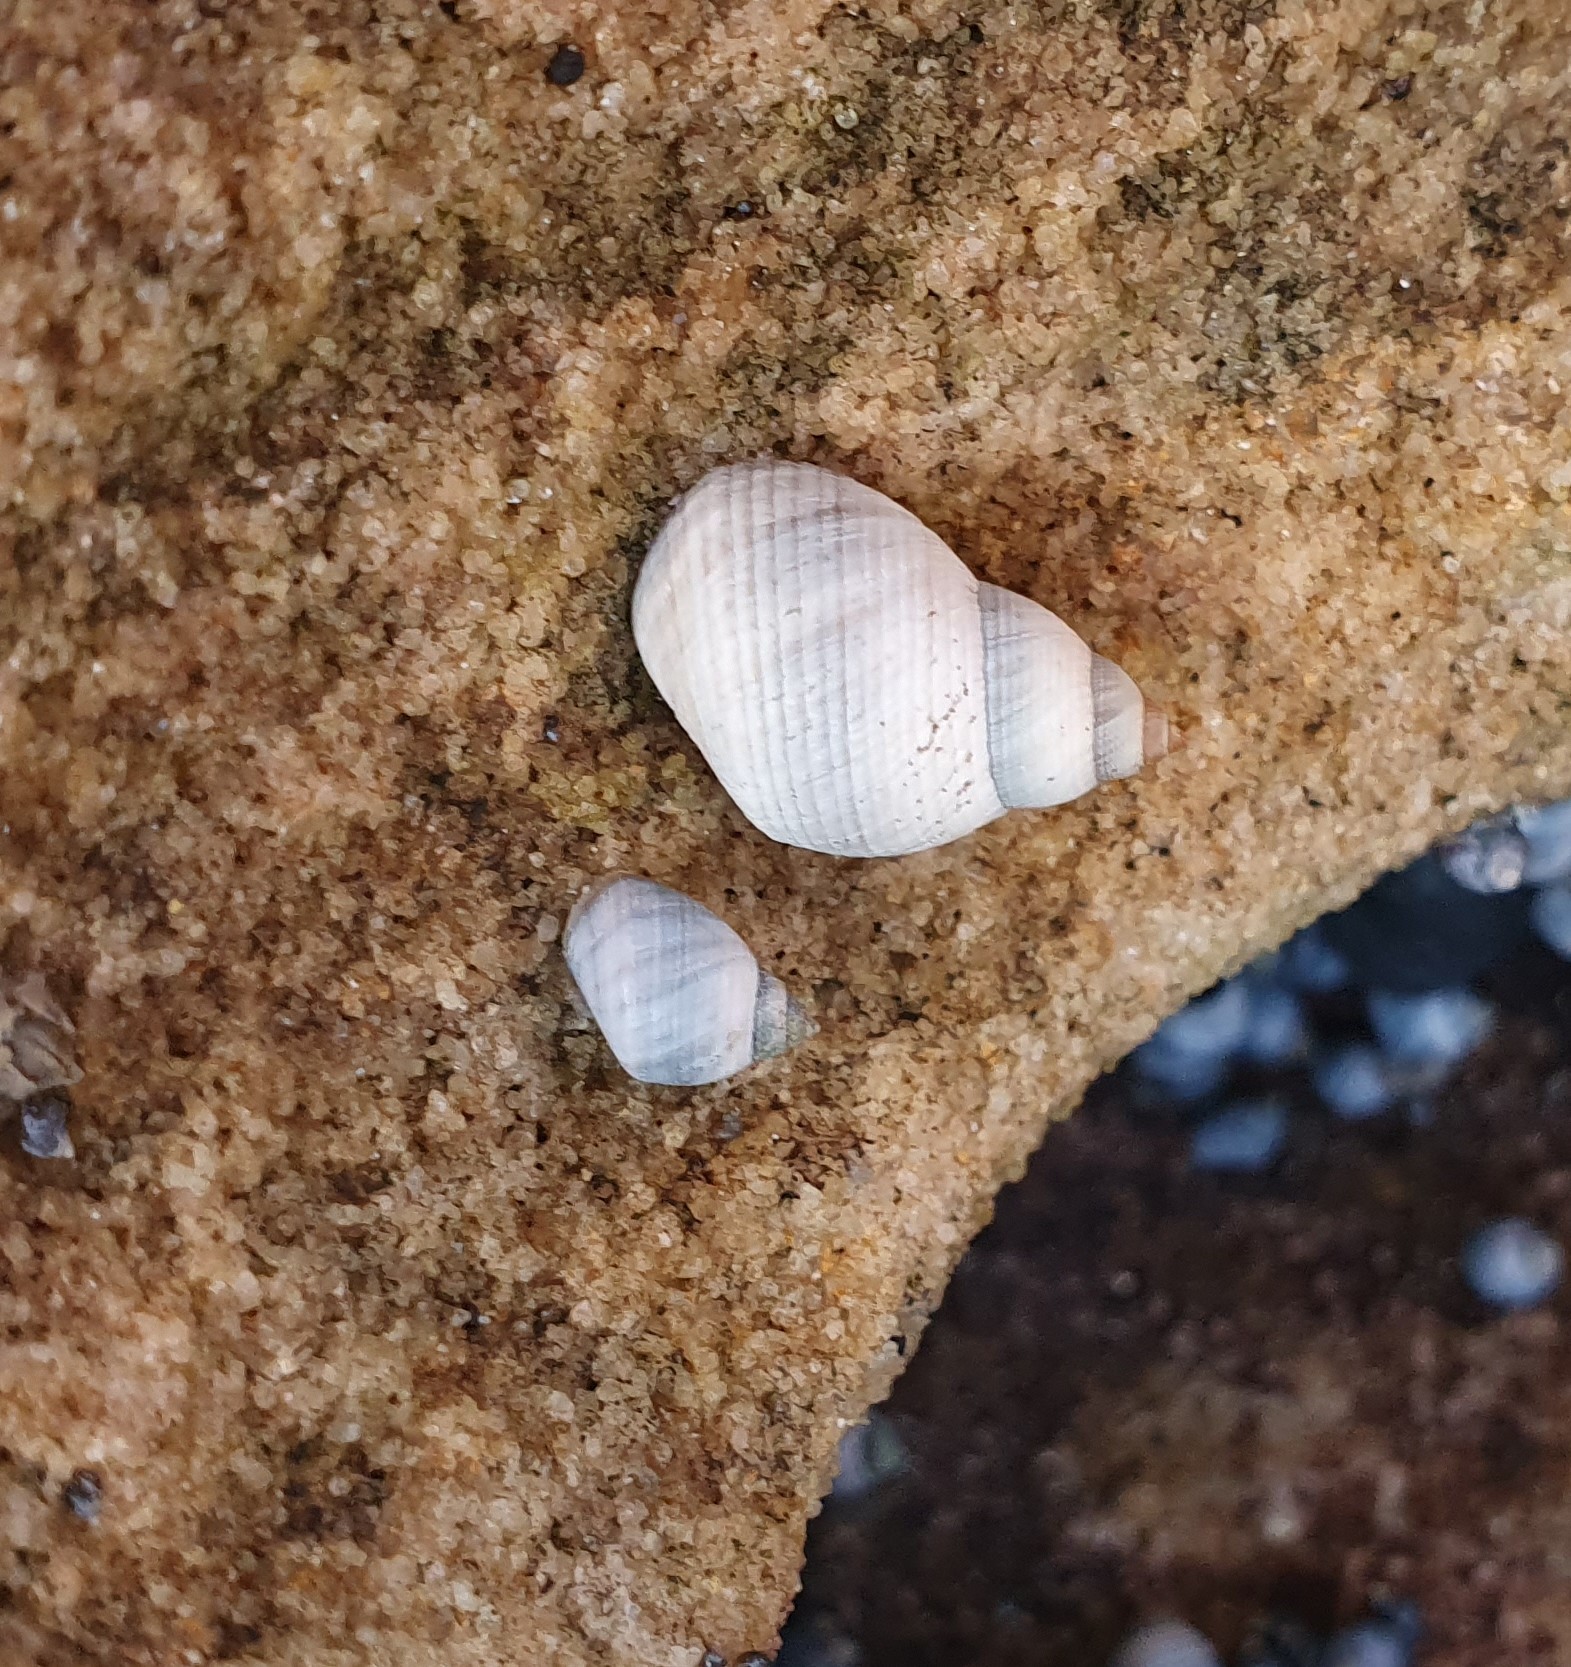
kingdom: Animalia
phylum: Mollusca
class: Gastropoda
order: Littorinimorpha
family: Littorinidae
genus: Austrolittorina
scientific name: Austrolittorina unifasciata
